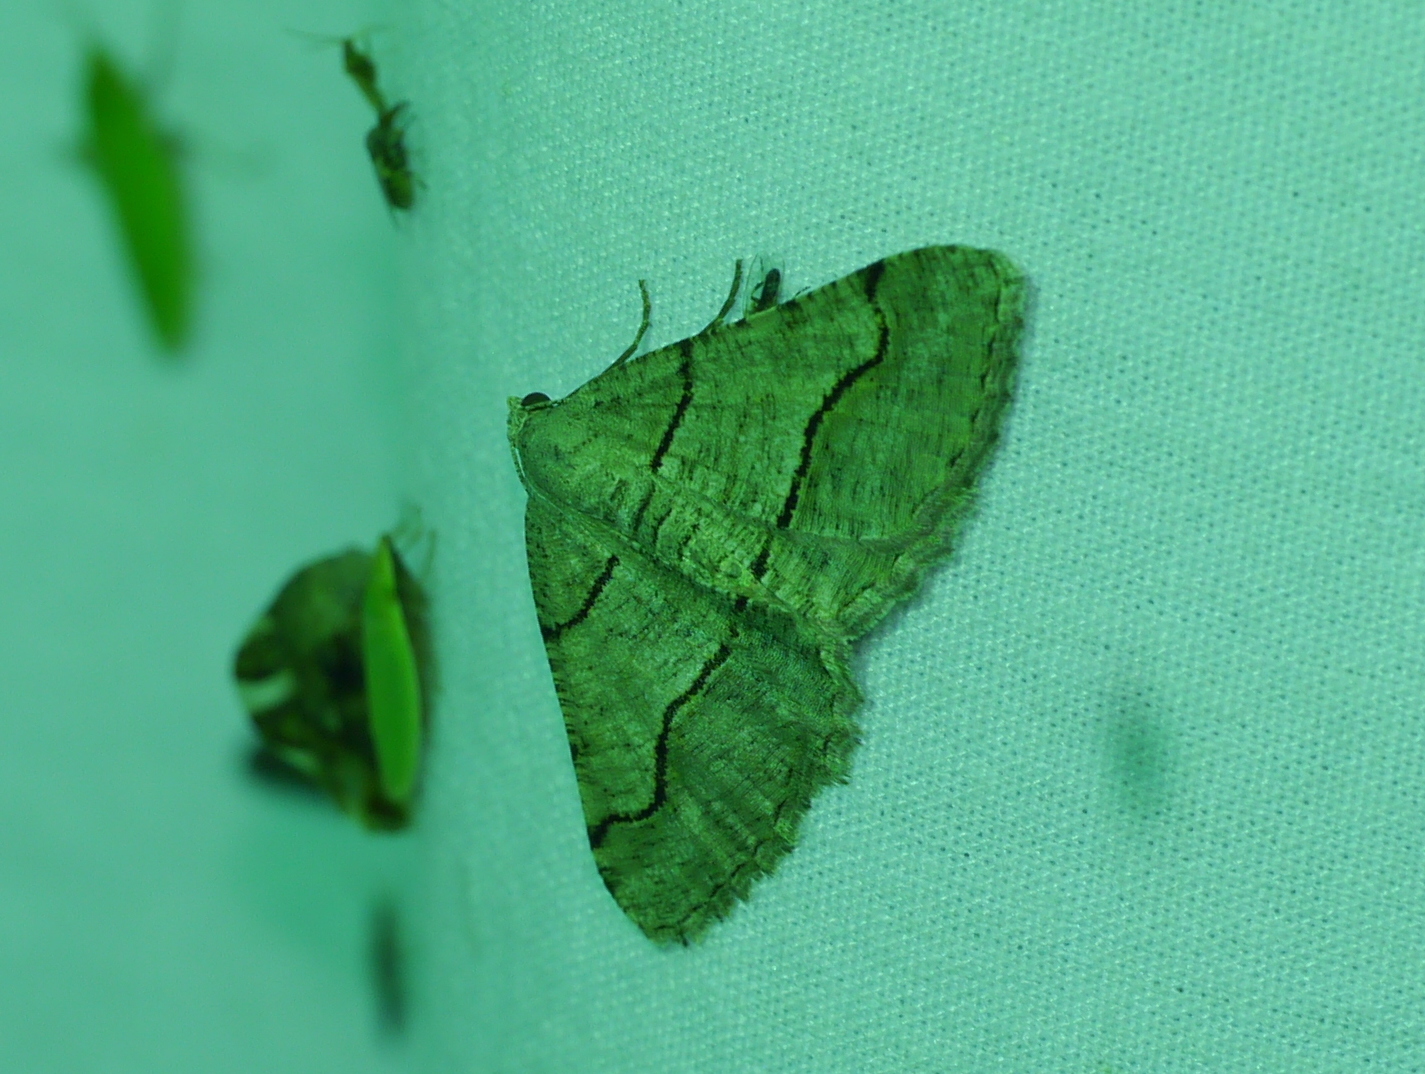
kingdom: Animalia
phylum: Arthropoda
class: Insecta
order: Lepidoptera
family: Geometridae
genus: Digrammia
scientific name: Digrammia continuata
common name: Curve-lined angle
